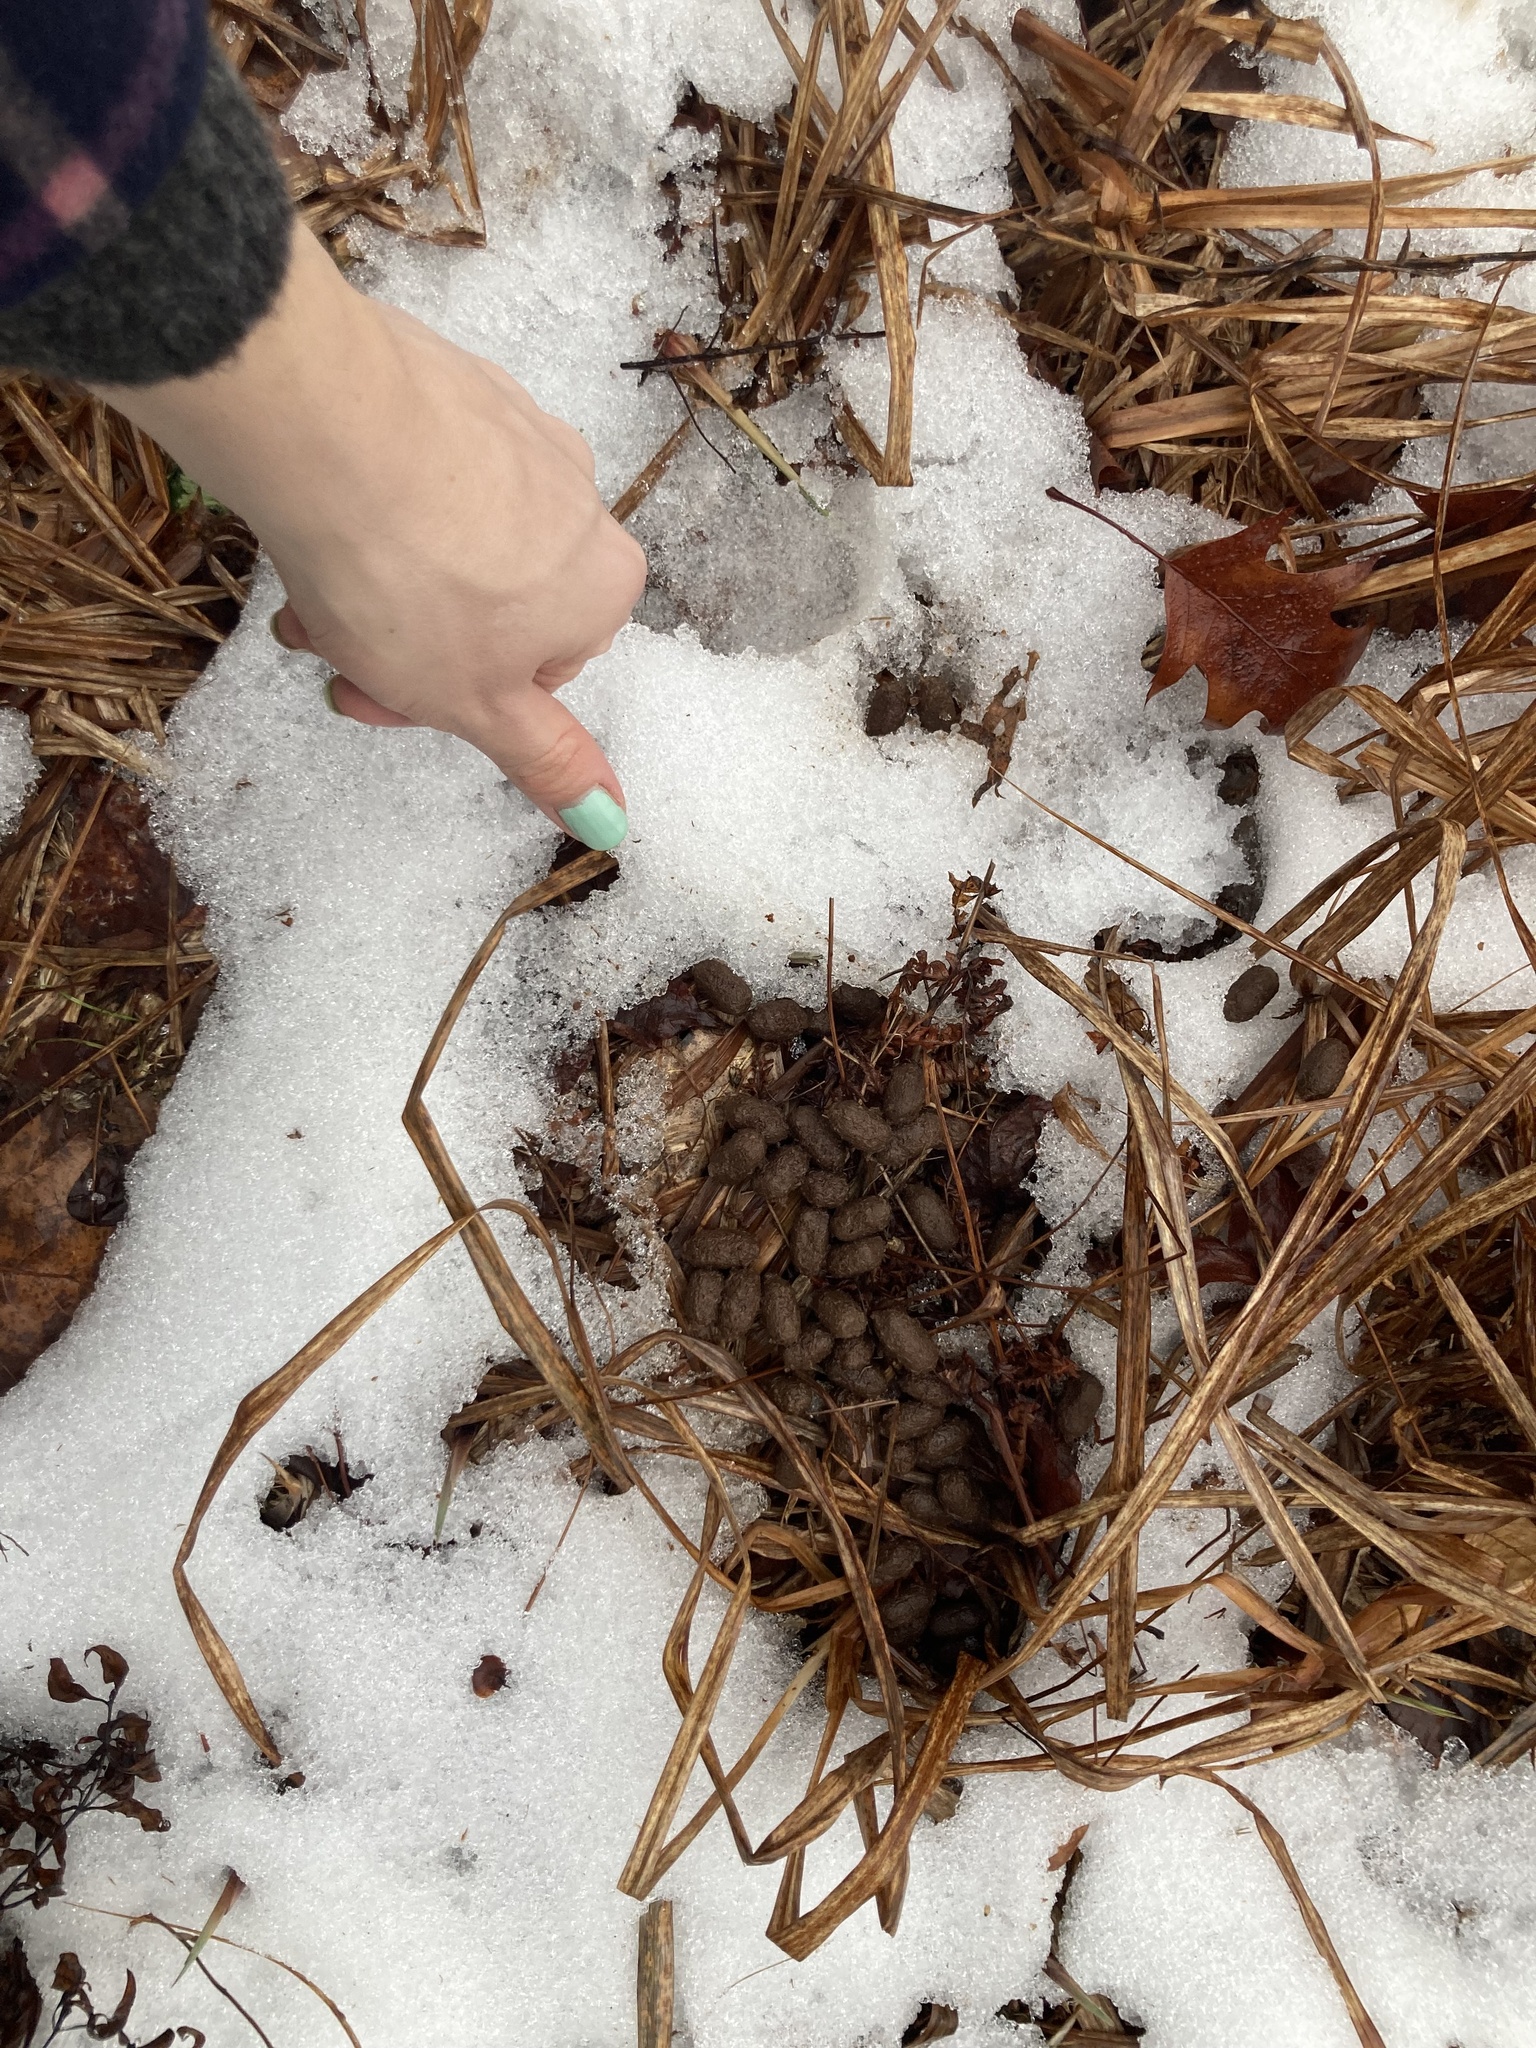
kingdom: Plantae
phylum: Tracheophyta
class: Magnoliopsida
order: Malvales
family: Thymelaeaceae
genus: Dirca
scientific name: Dirca palustris
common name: Leatherwood
